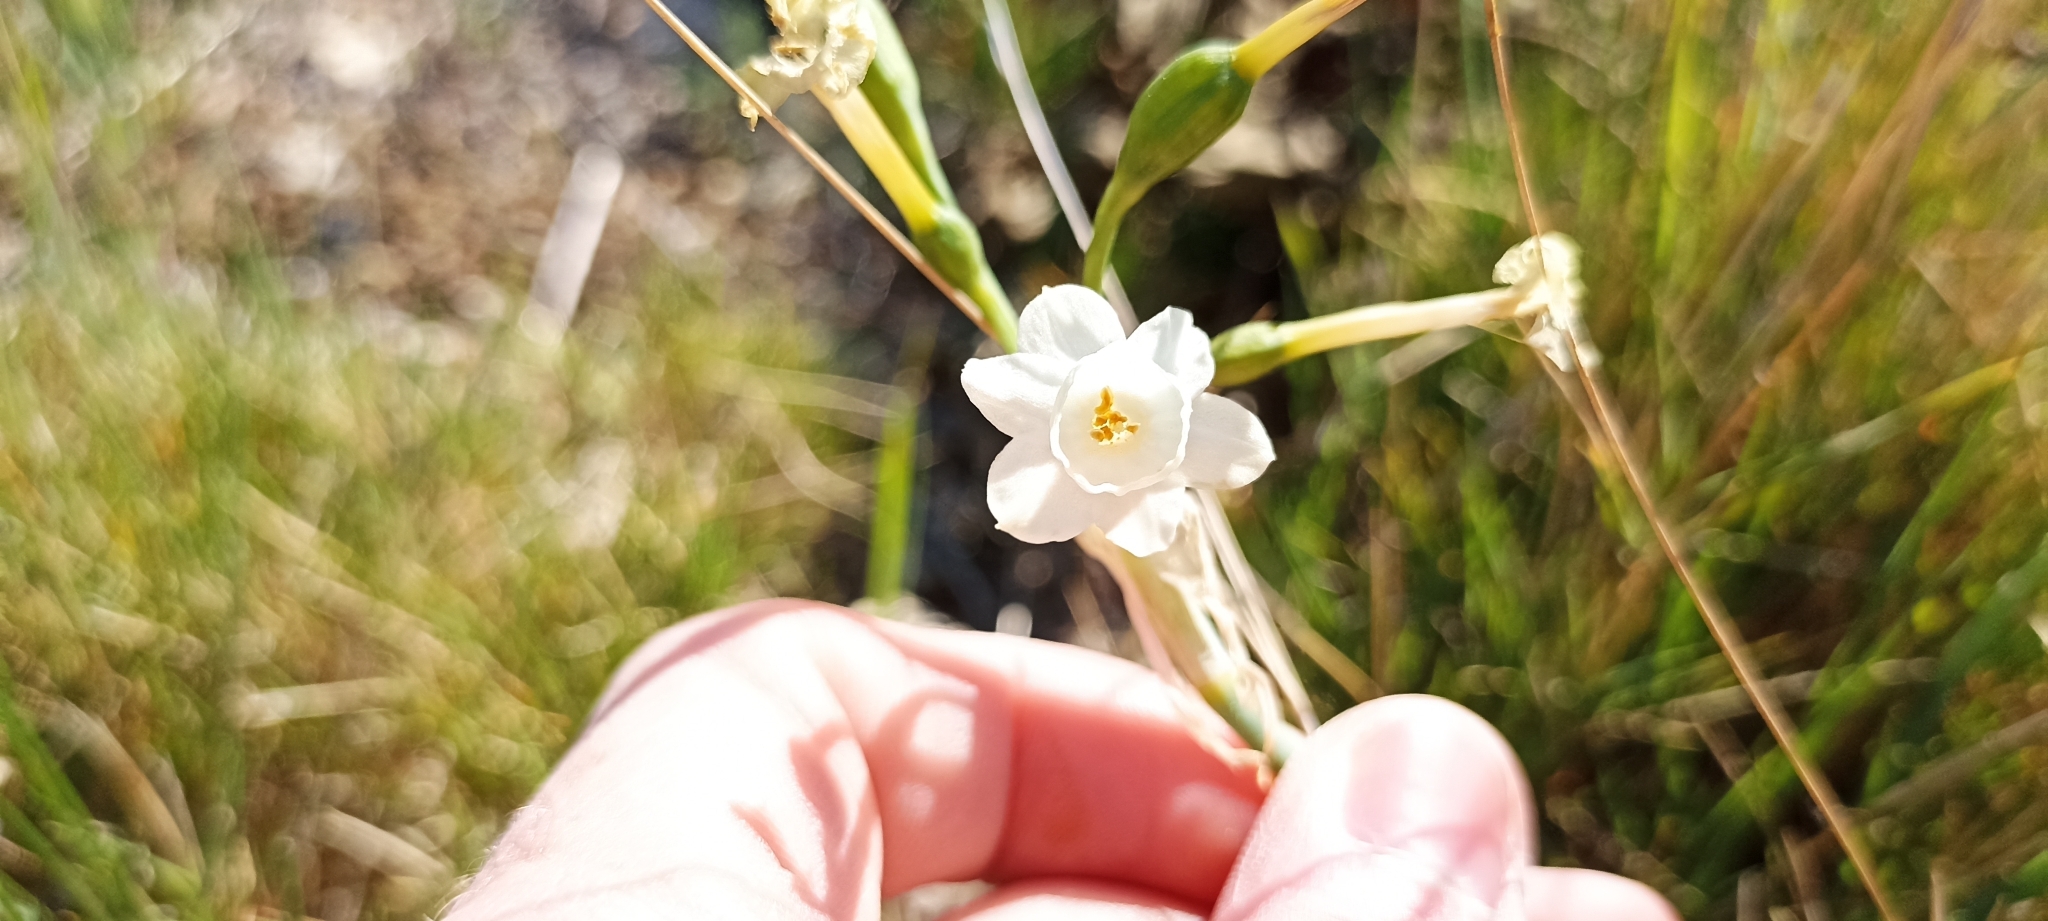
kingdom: Plantae
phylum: Tracheophyta
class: Liliopsida
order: Asparagales
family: Amaryllidaceae
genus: Narcissus
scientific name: Narcissus dubius
